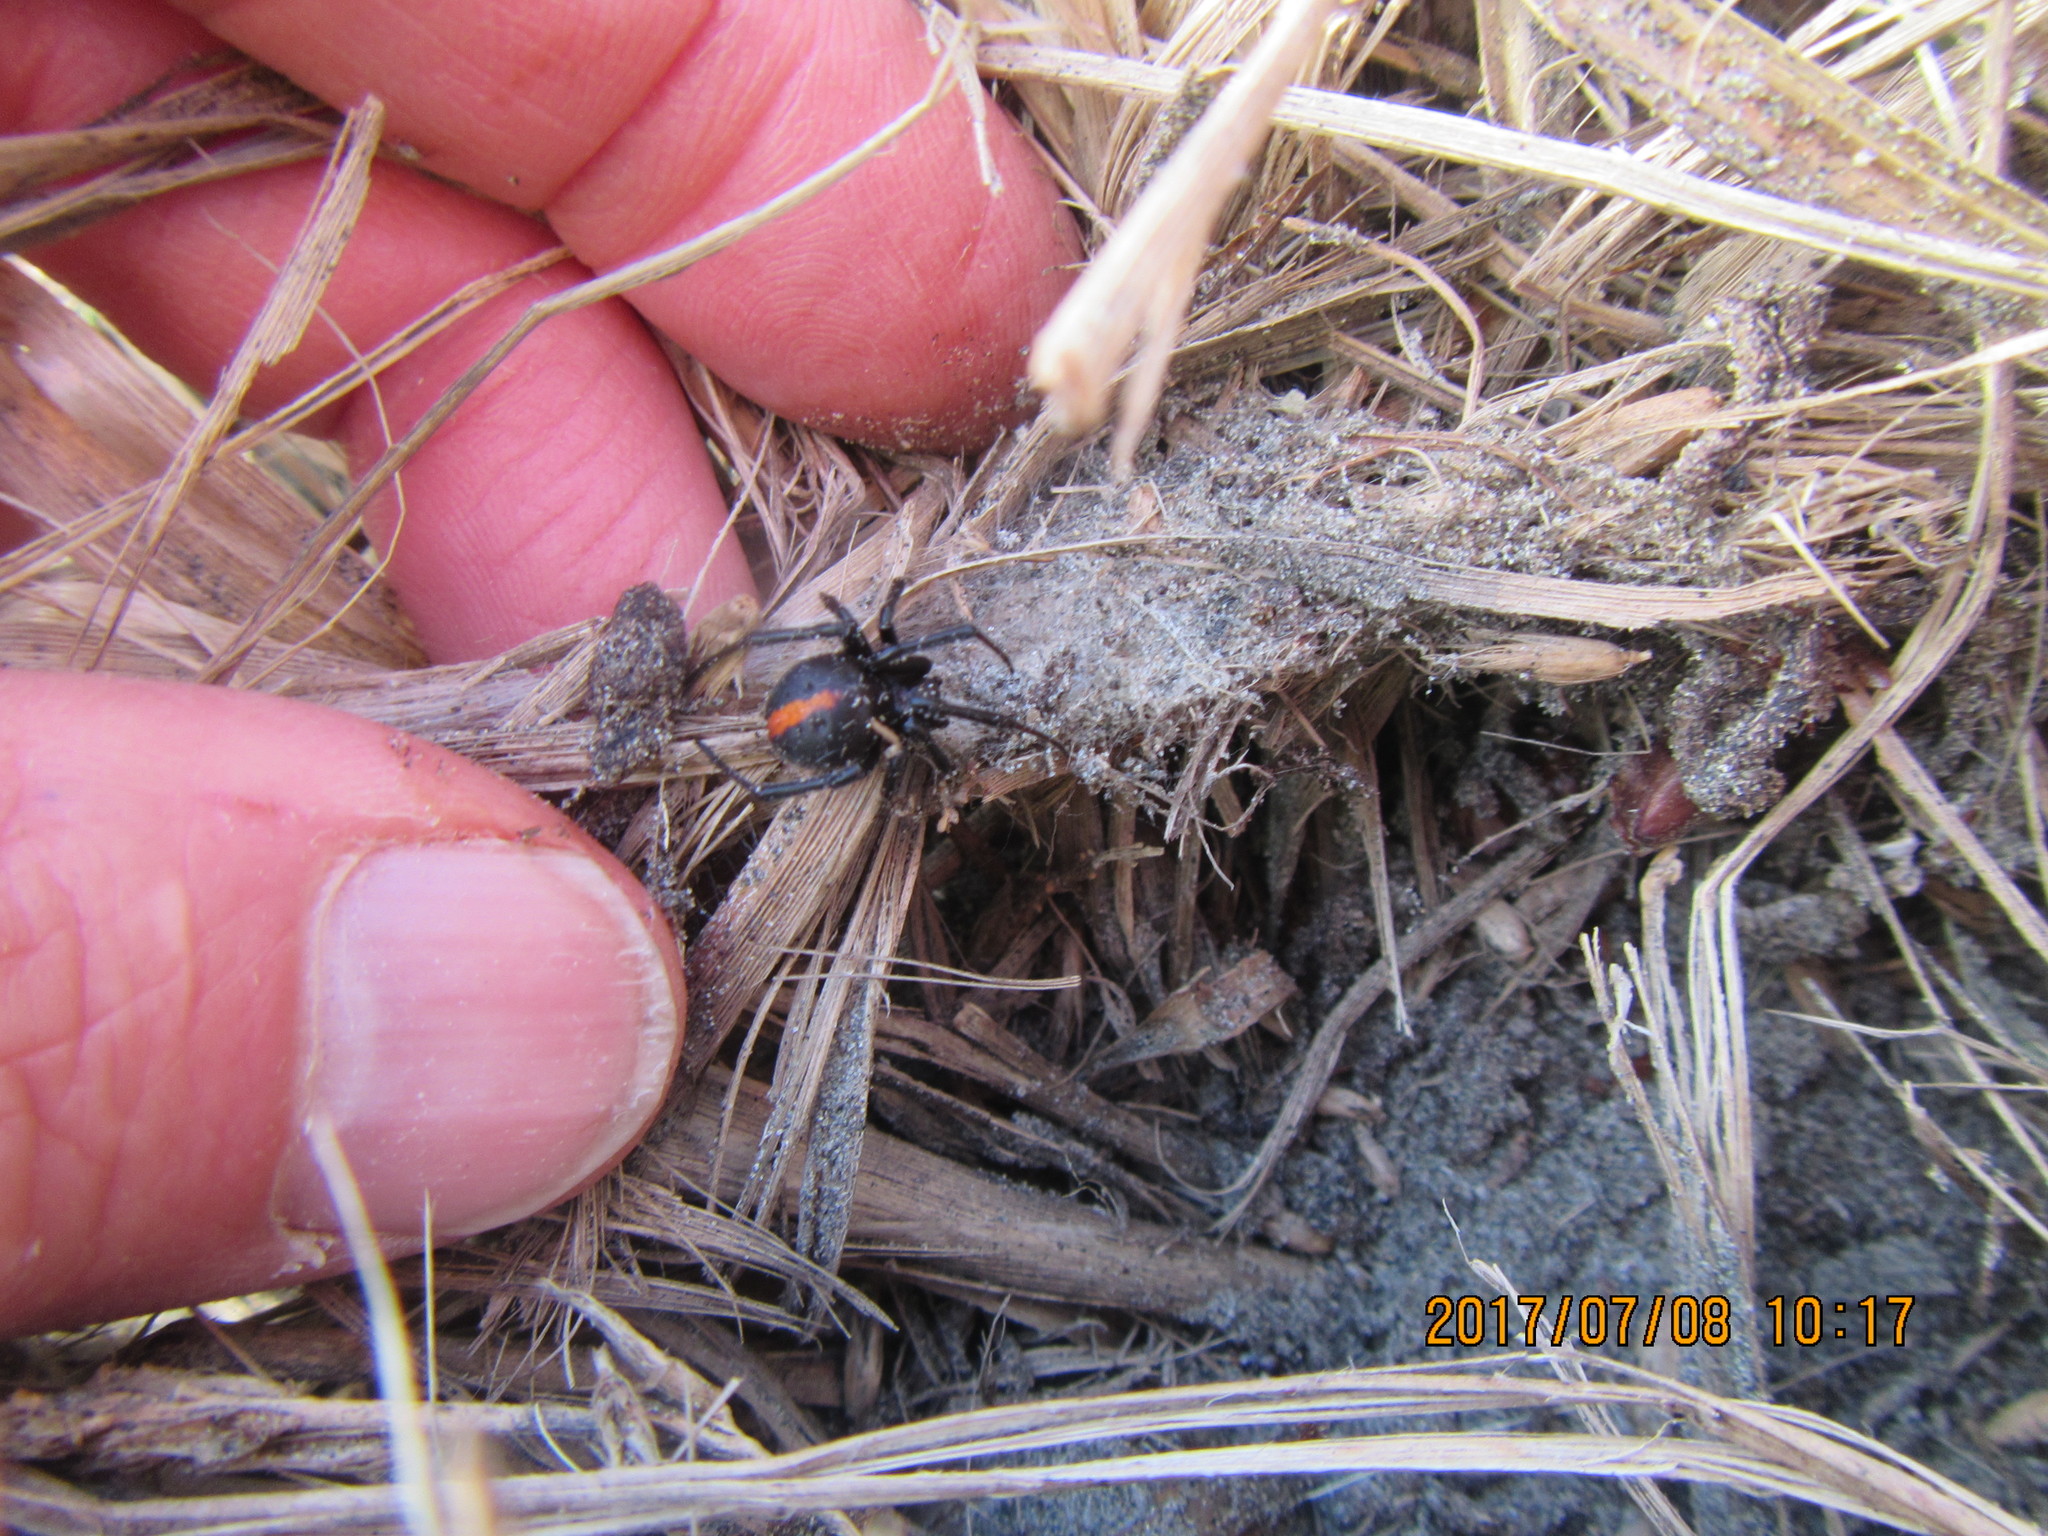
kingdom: Animalia
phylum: Arthropoda
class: Arachnida
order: Araneae
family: Theridiidae
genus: Latrodectus
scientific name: Latrodectus katipo
